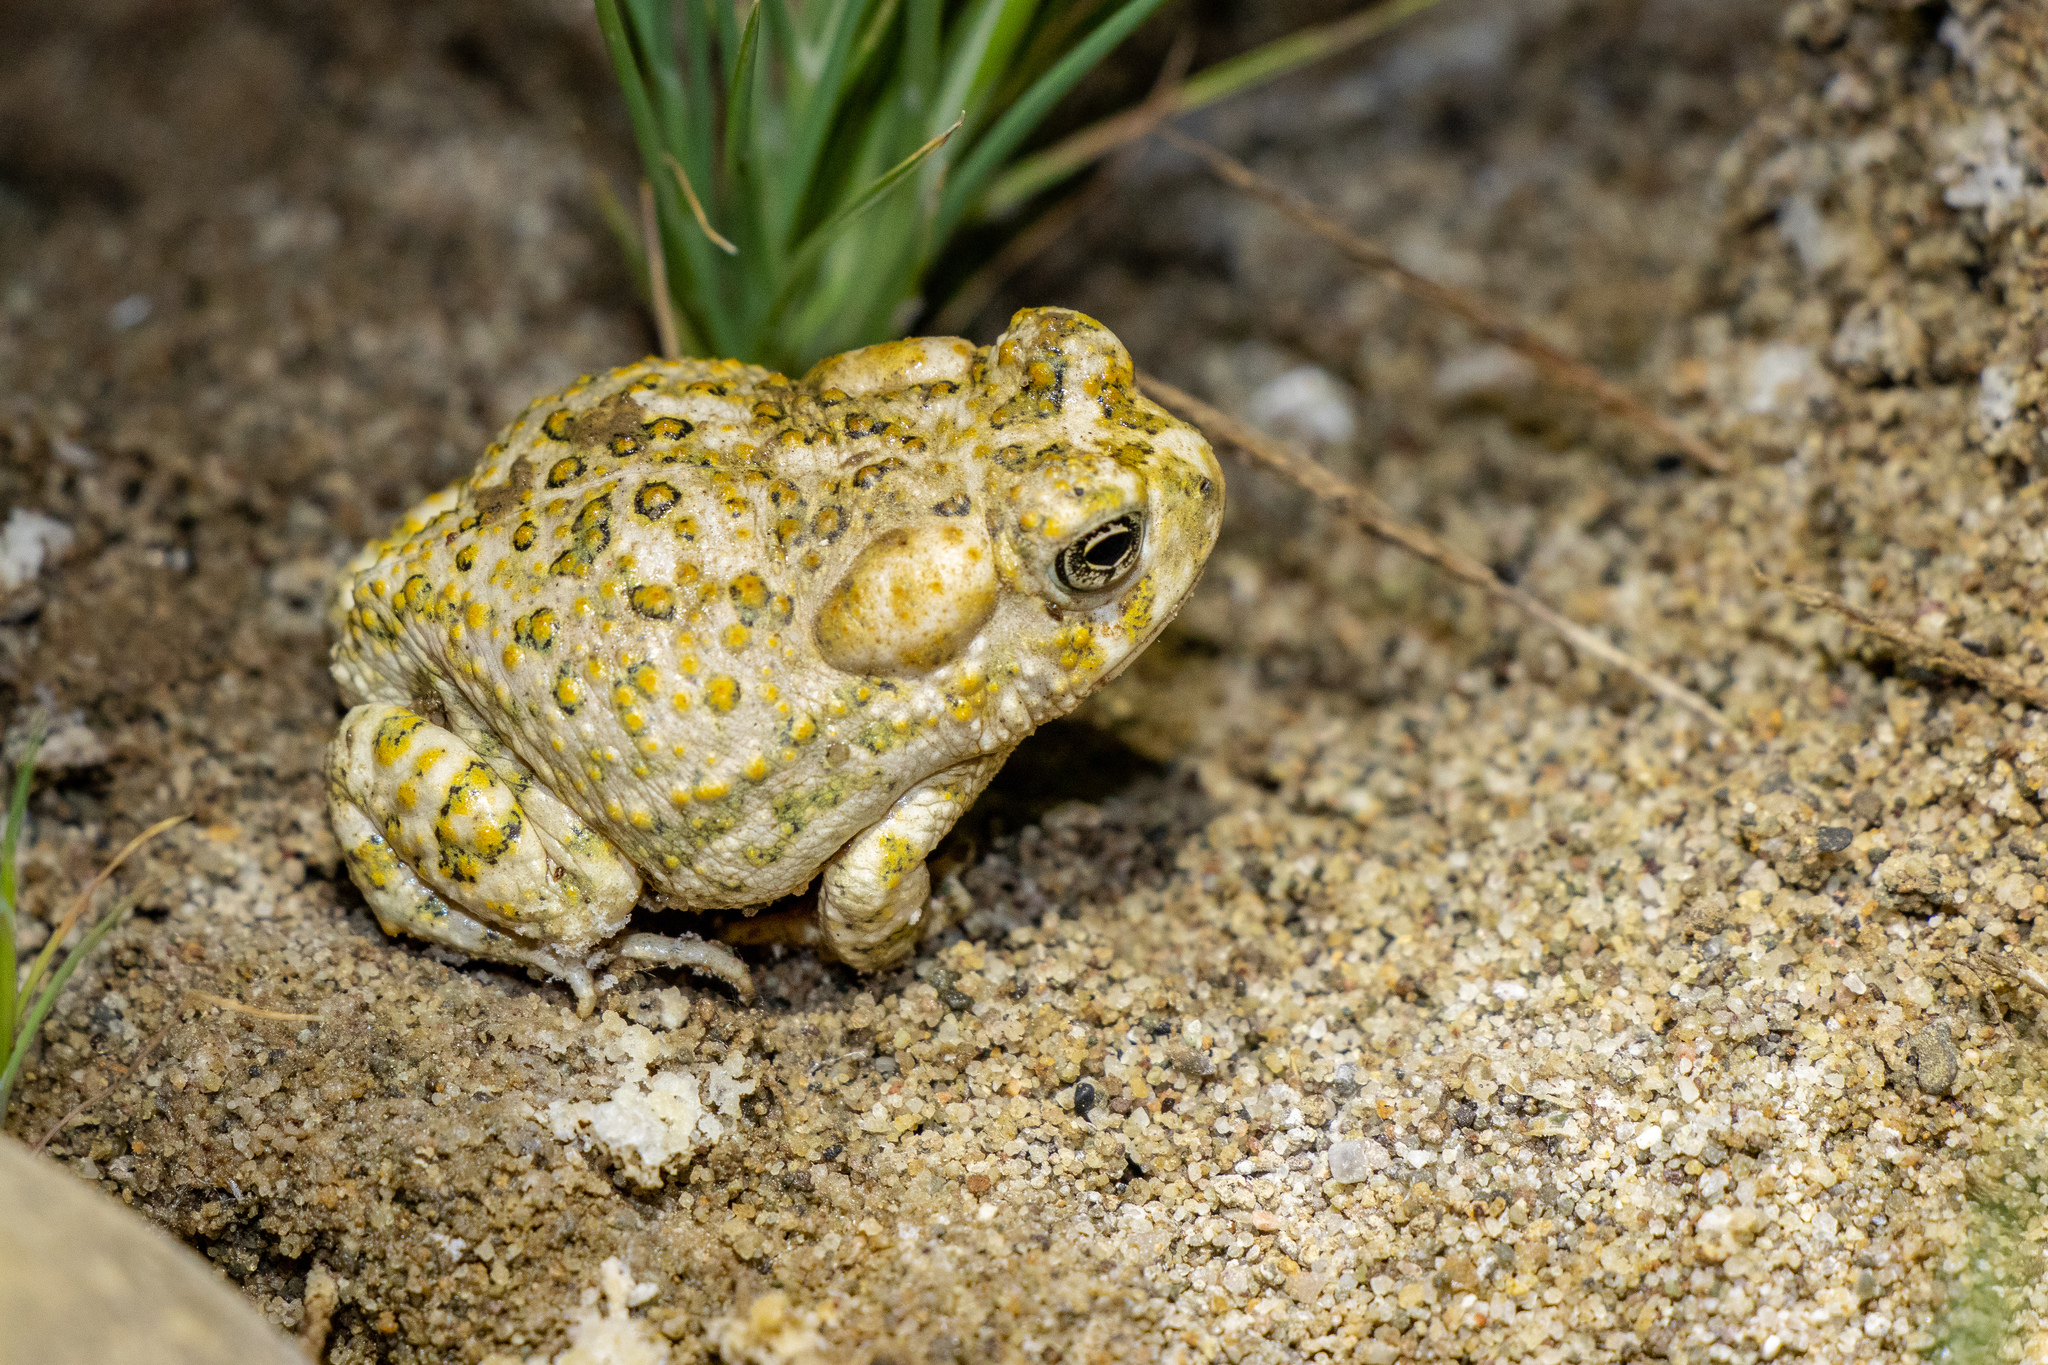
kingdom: Animalia
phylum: Chordata
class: Amphibia
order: Anura
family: Bufonidae
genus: Anaxyrus
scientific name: Anaxyrus californicus
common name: Arroyo toad
